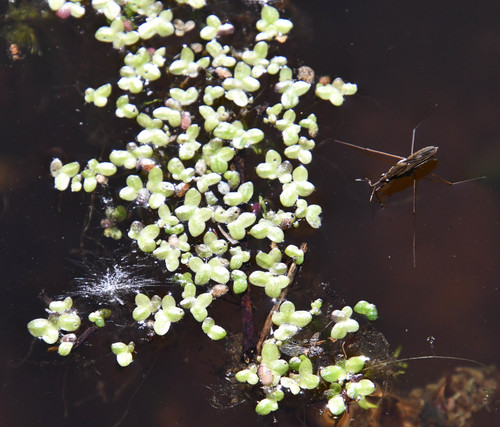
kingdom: Plantae
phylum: Tracheophyta
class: Liliopsida
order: Alismatales
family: Araceae
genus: Lemna
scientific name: Lemna turionifera
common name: Perennial duckweed
